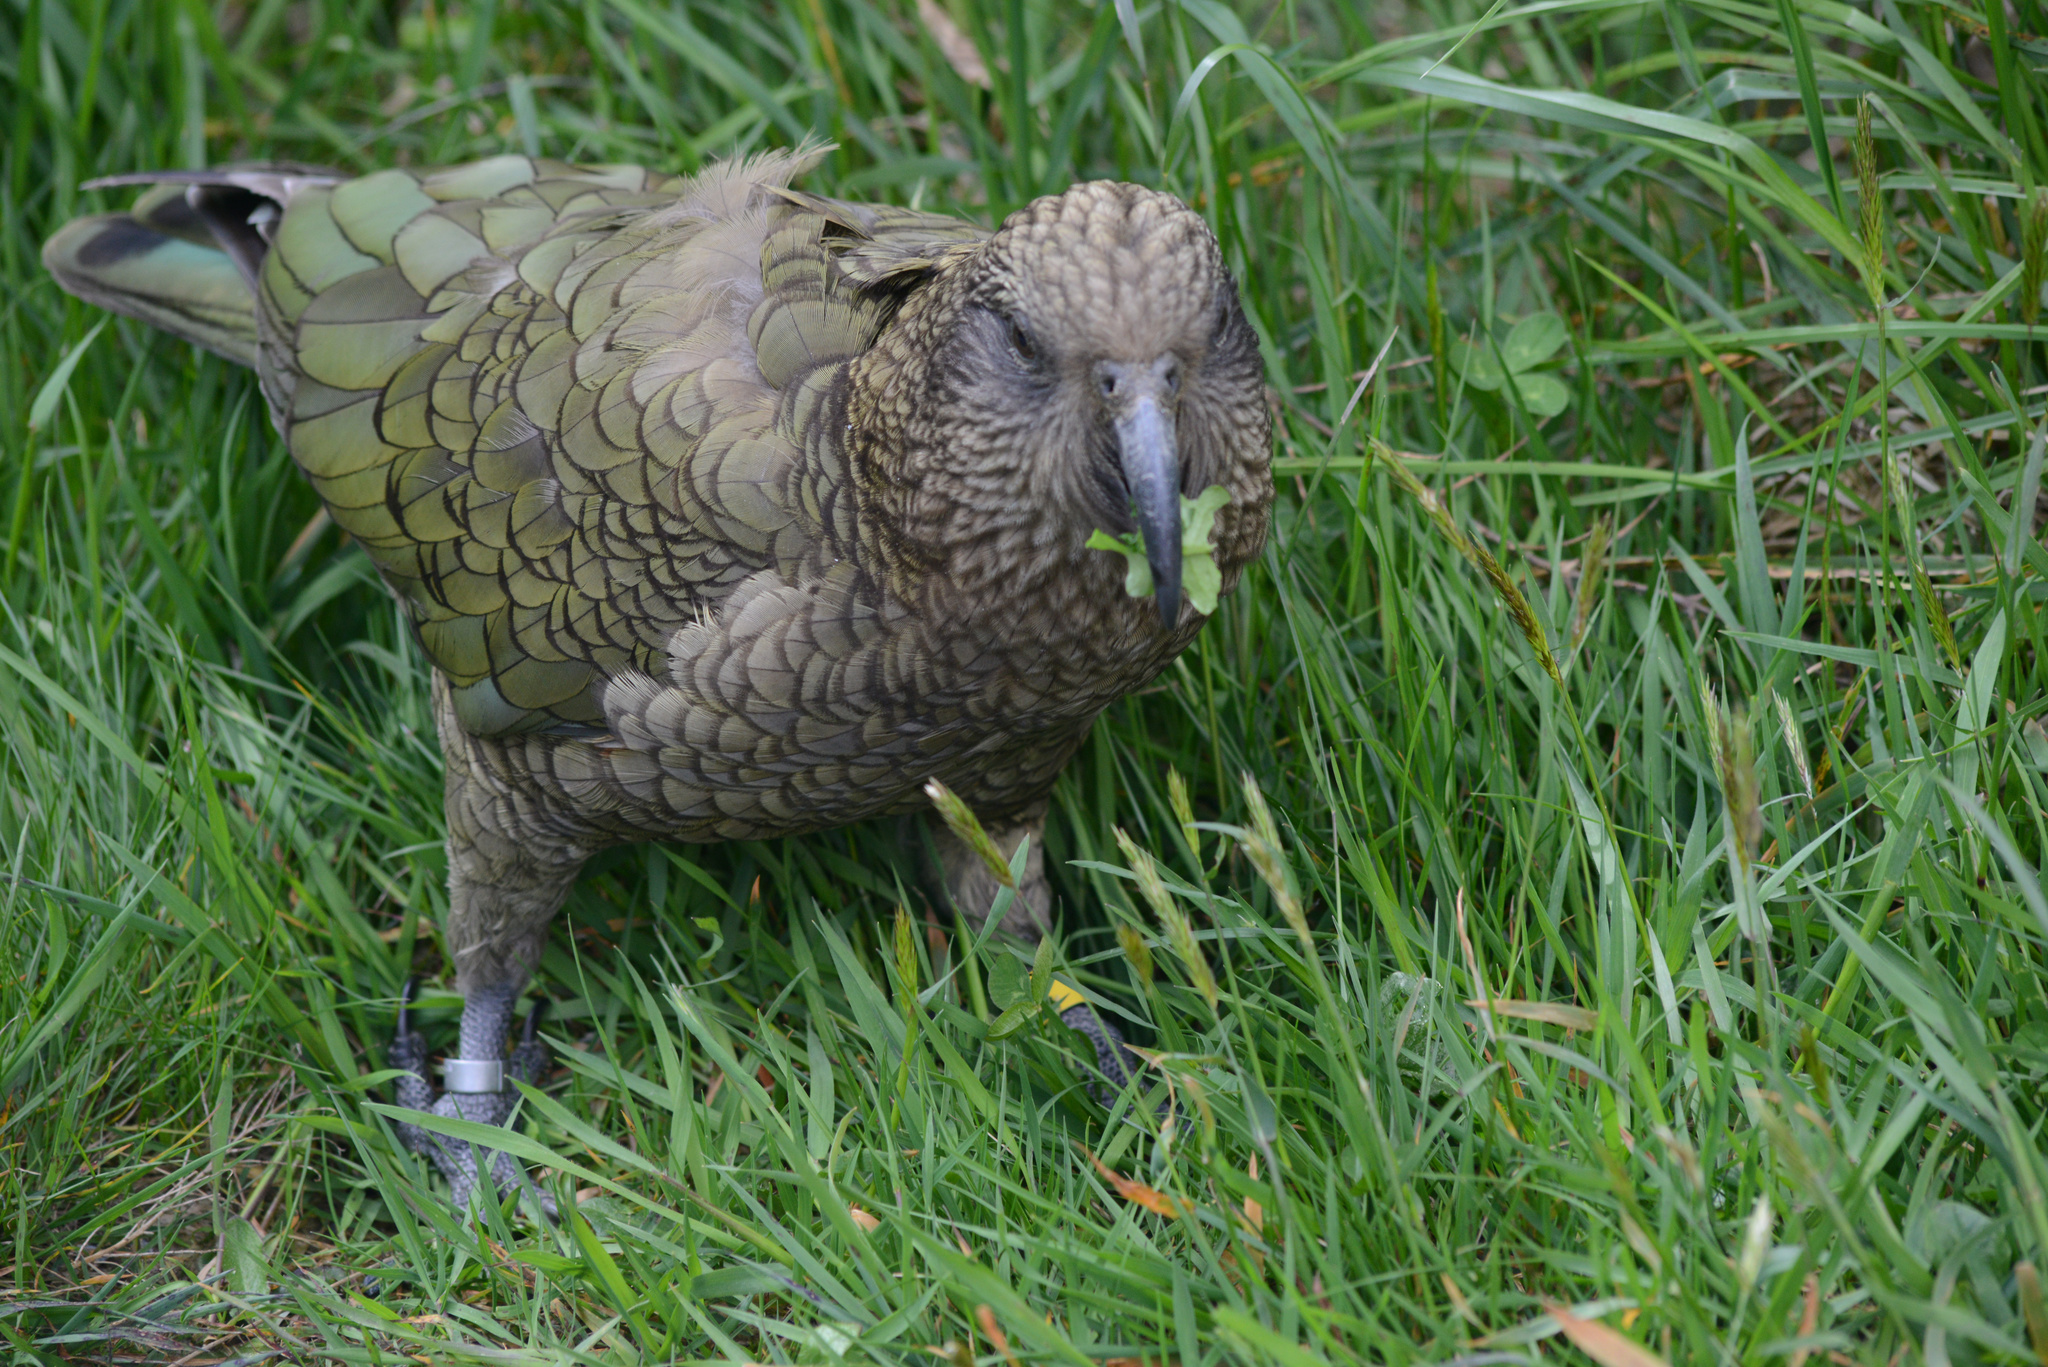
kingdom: Animalia
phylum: Chordata
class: Aves
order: Psittaciformes
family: Psittacidae
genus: Nestor
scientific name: Nestor notabilis
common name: Kea
